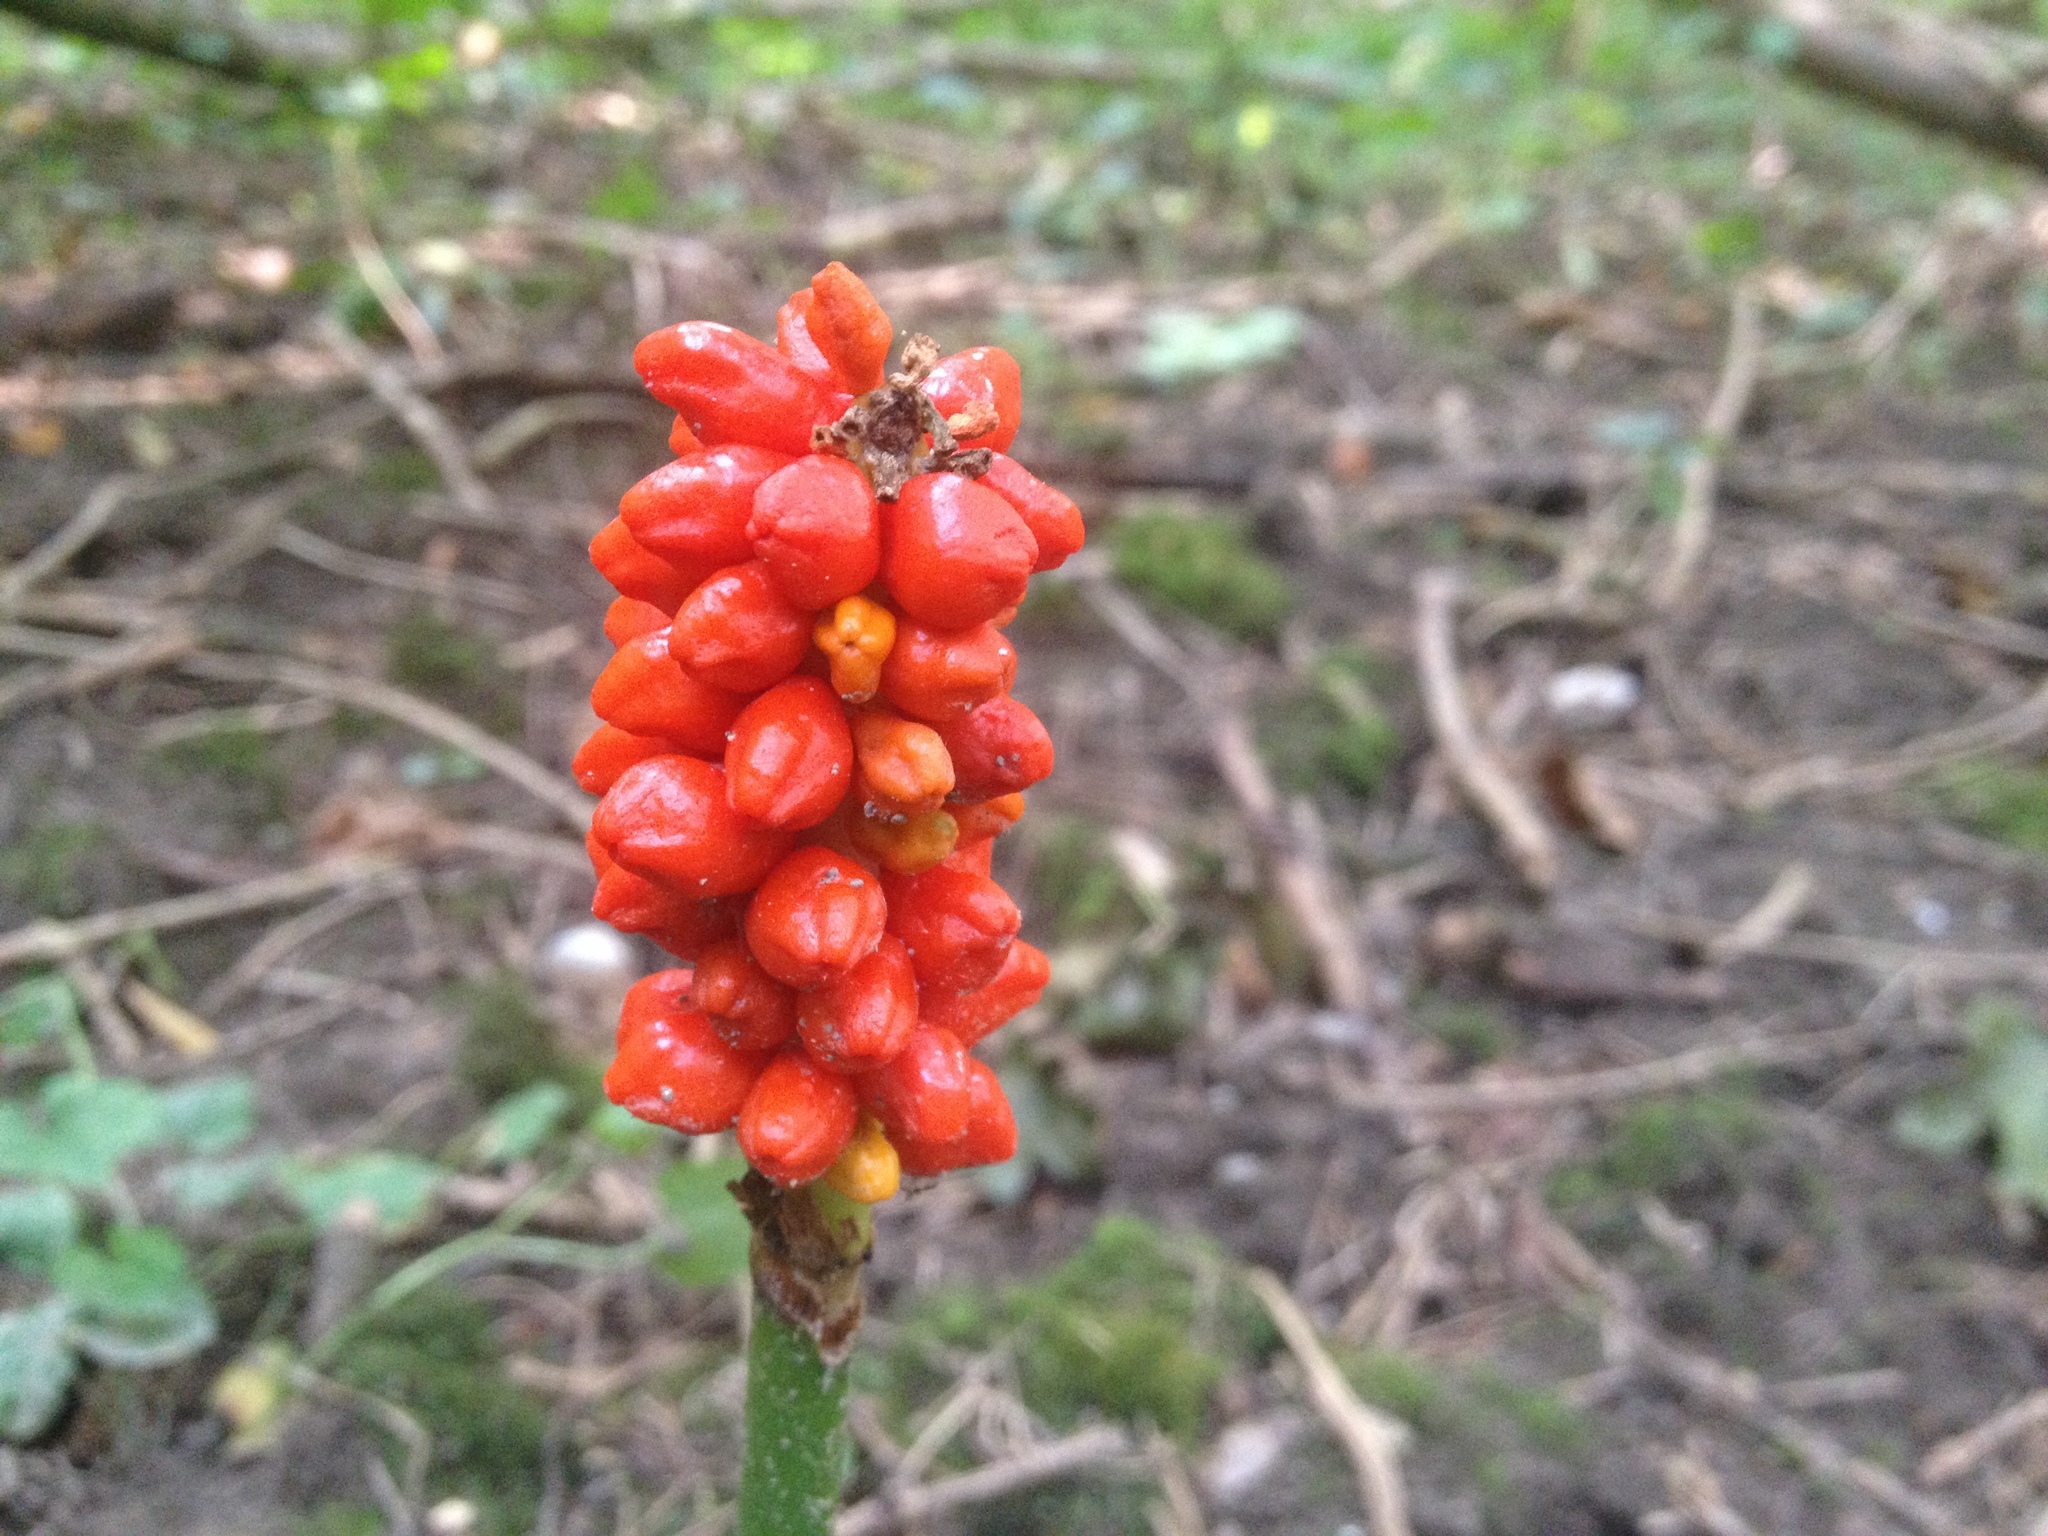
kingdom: Plantae
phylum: Tracheophyta
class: Liliopsida
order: Alismatales
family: Araceae
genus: Arum
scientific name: Arum cylindraceum
